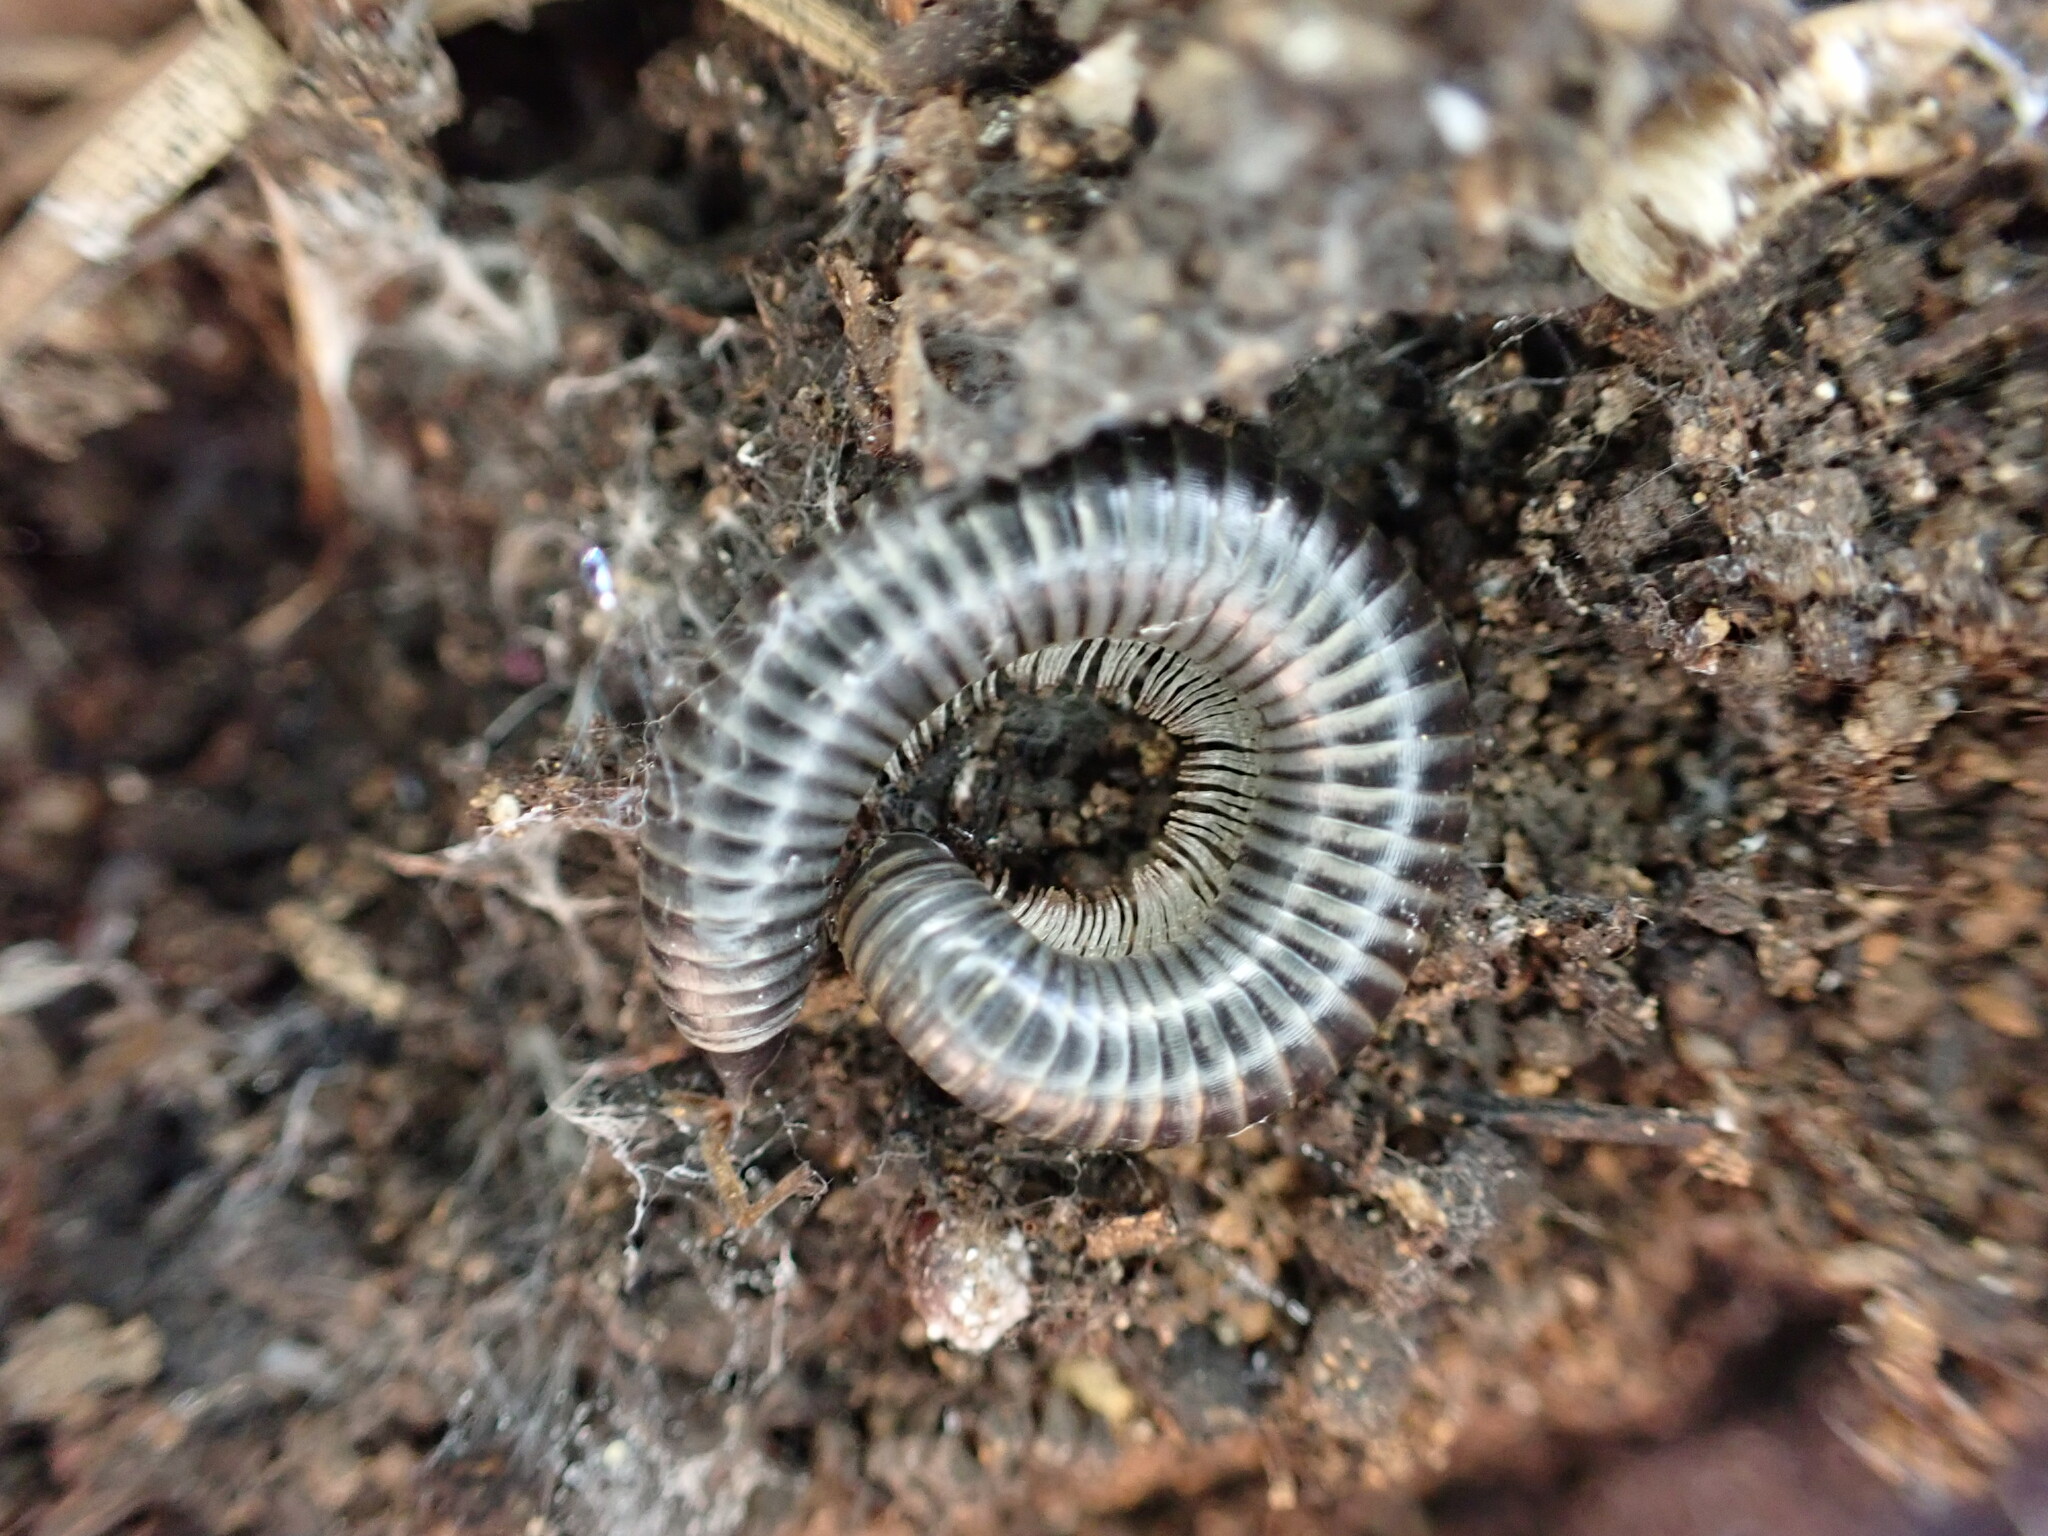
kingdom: Animalia
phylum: Arthropoda
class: Diplopoda
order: Julida
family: Julidae
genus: Ommatoiulus
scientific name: Ommatoiulus sabulosus
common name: Striped millipede
